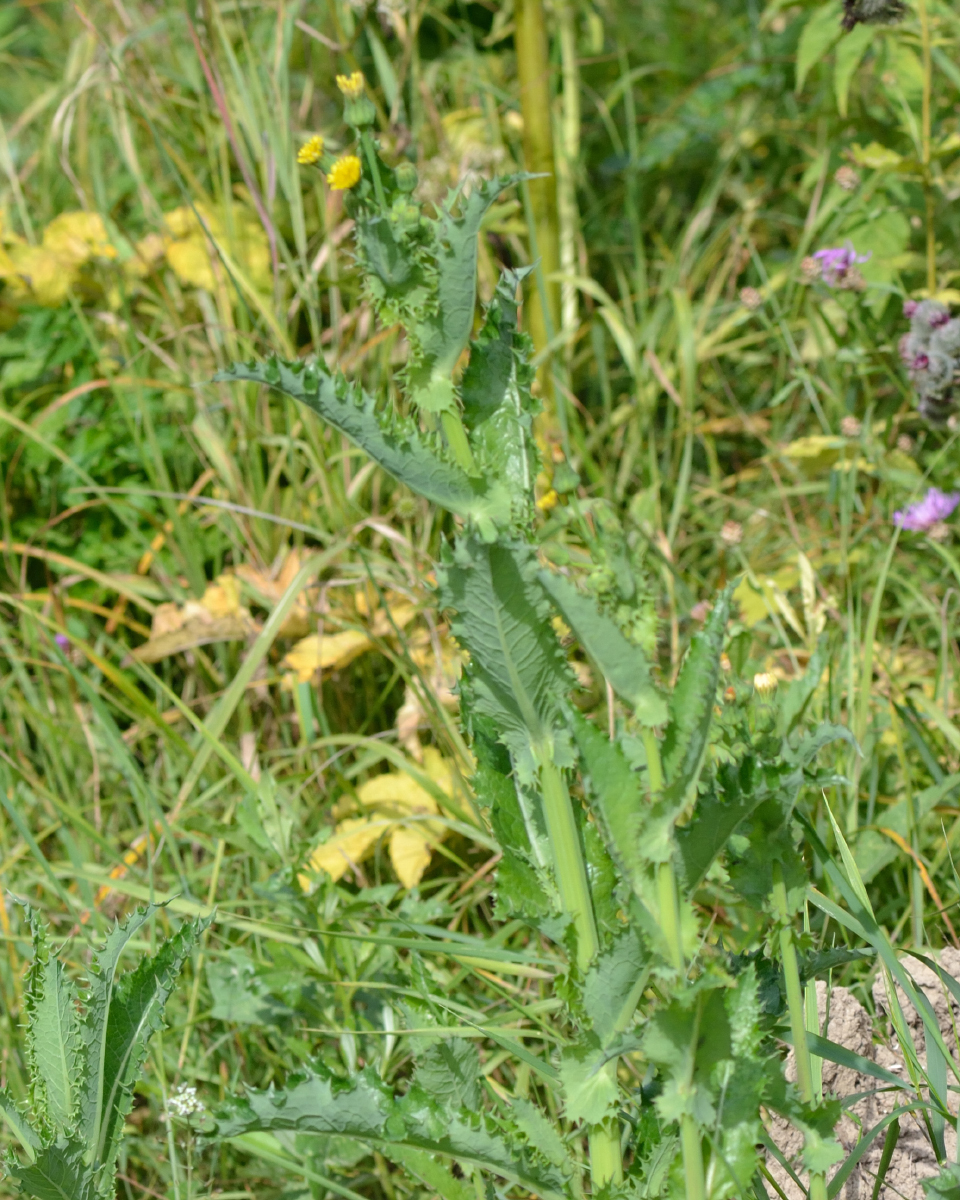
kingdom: Plantae
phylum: Tracheophyta
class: Magnoliopsida
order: Asterales
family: Asteraceae
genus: Sonchus
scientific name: Sonchus asper
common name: Prickly sow-thistle
